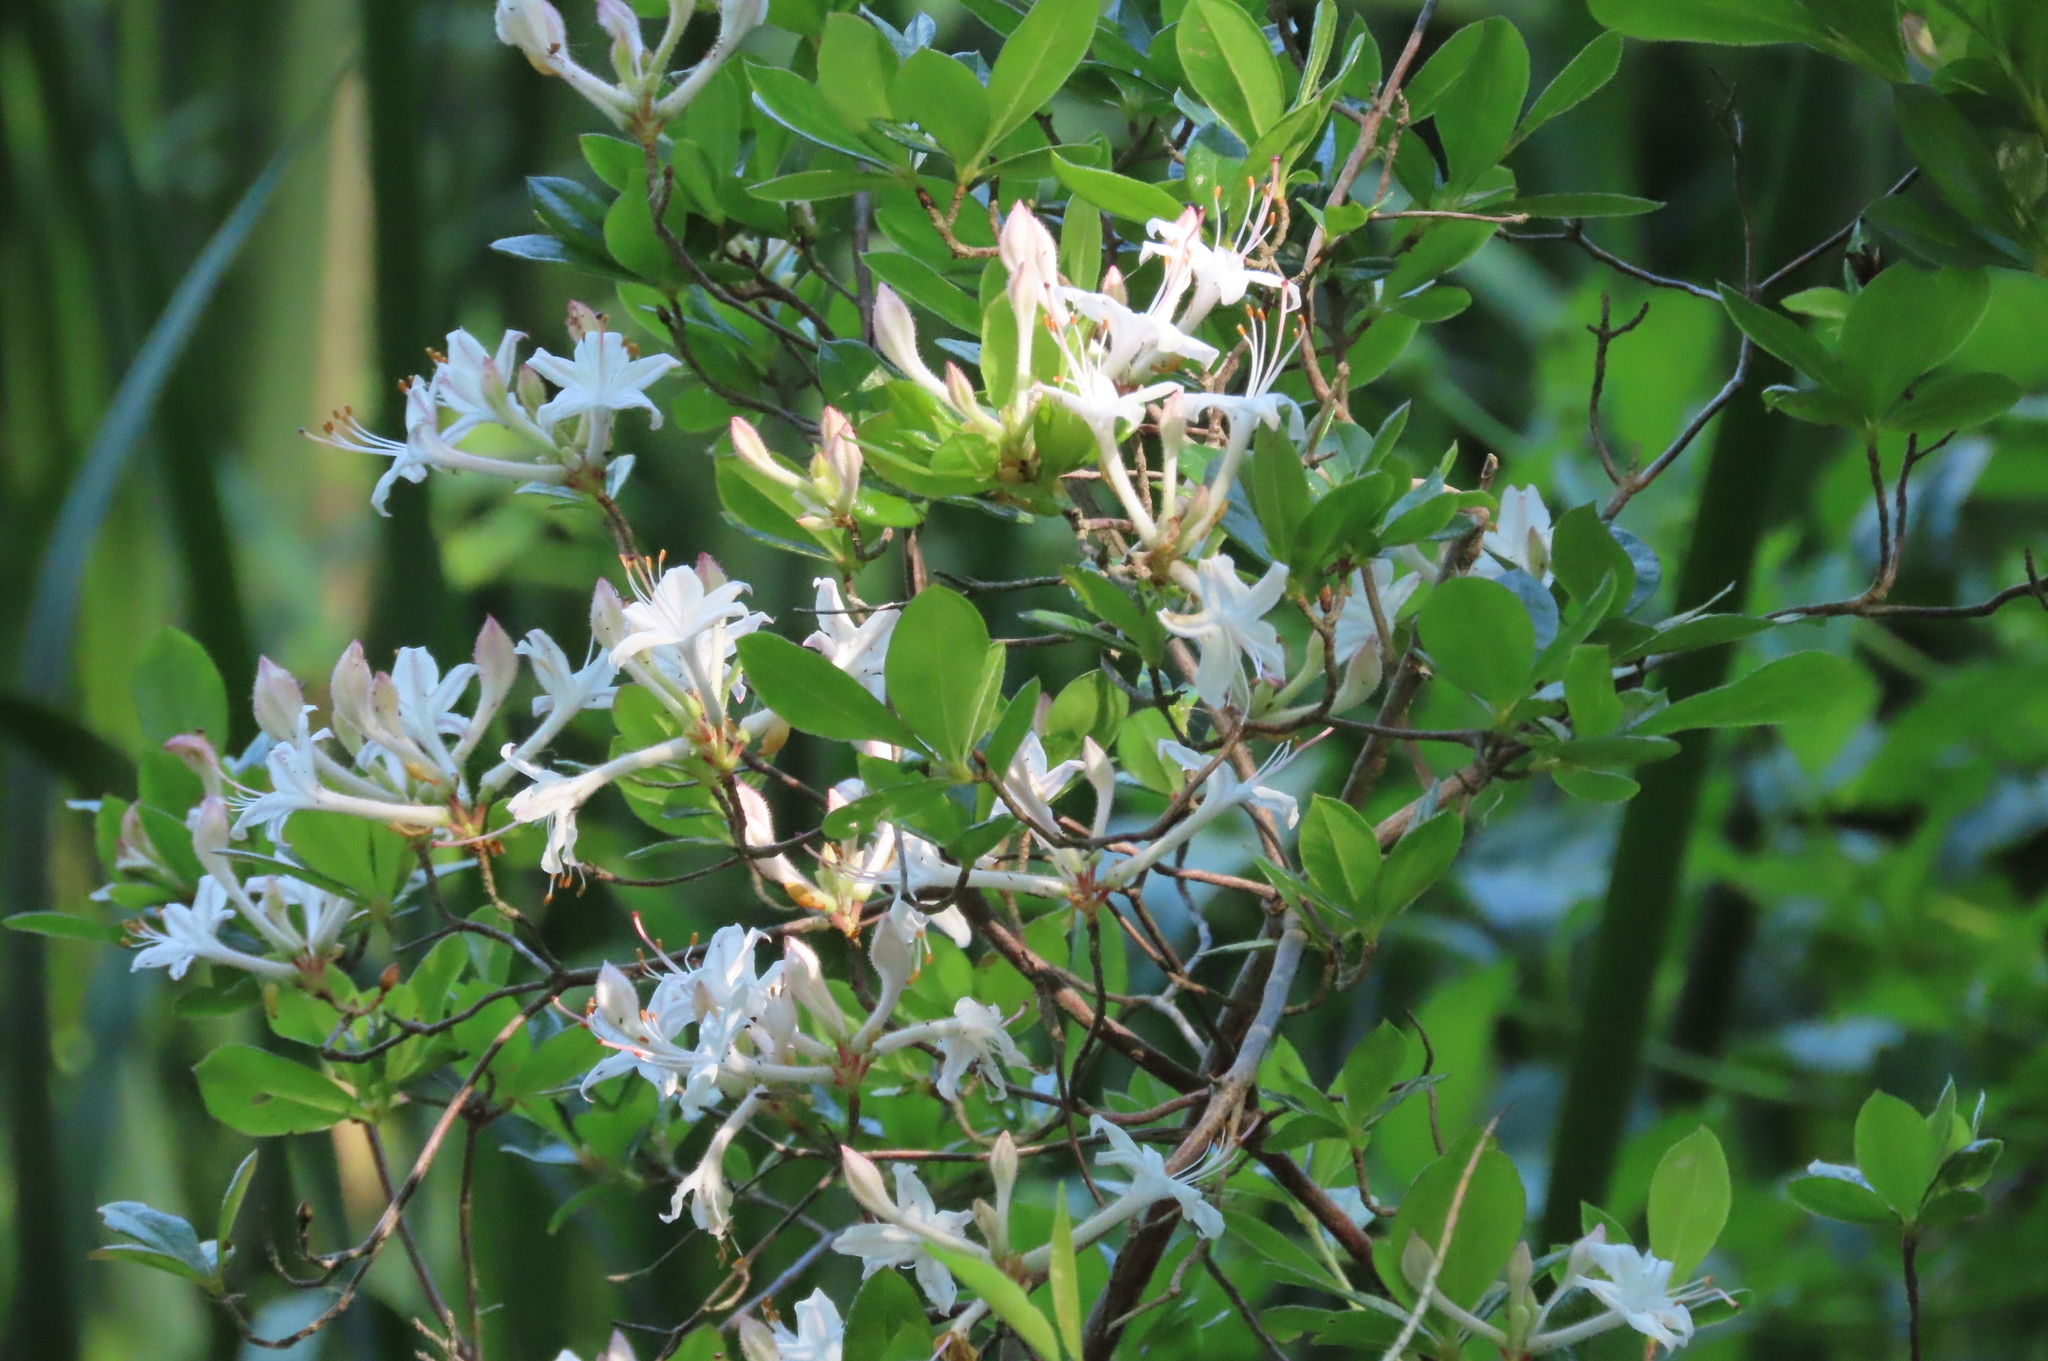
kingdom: Plantae
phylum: Tracheophyta
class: Magnoliopsida
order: Ericales
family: Ericaceae
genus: Rhododendron
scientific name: Rhododendron viscosum
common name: Clammy azalea
